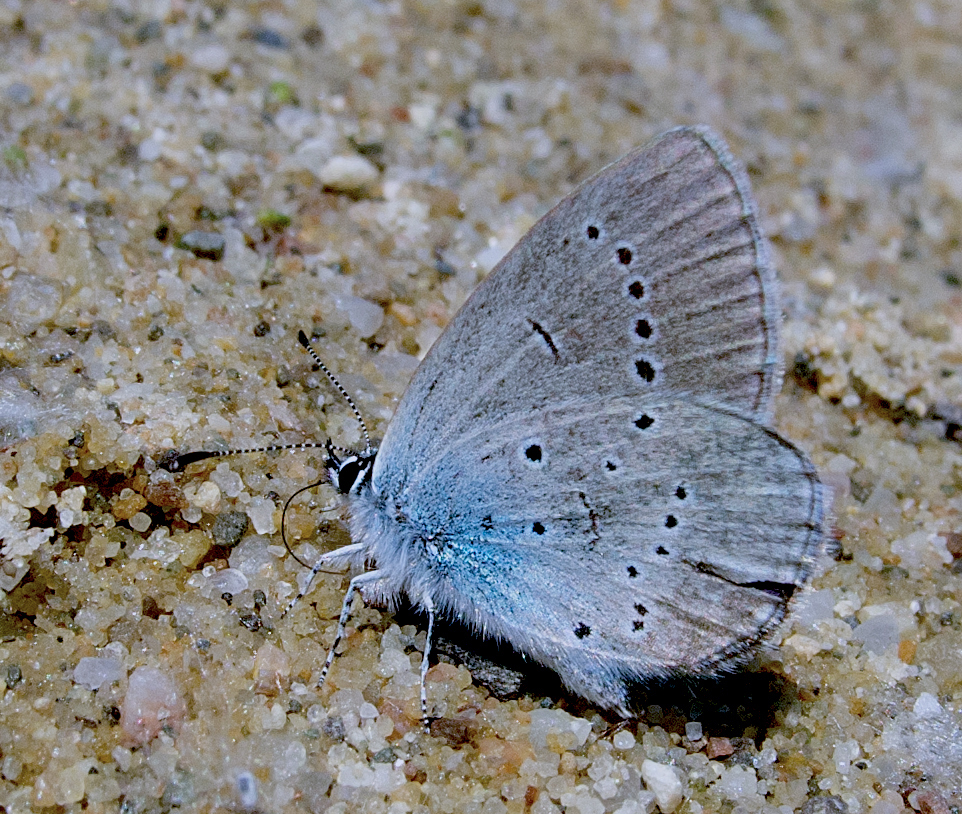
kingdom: Animalia
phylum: Arthropoda
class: Insecta
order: Lepidoptera
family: Lycaenidae
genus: Everes
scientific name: Everes sebrus
